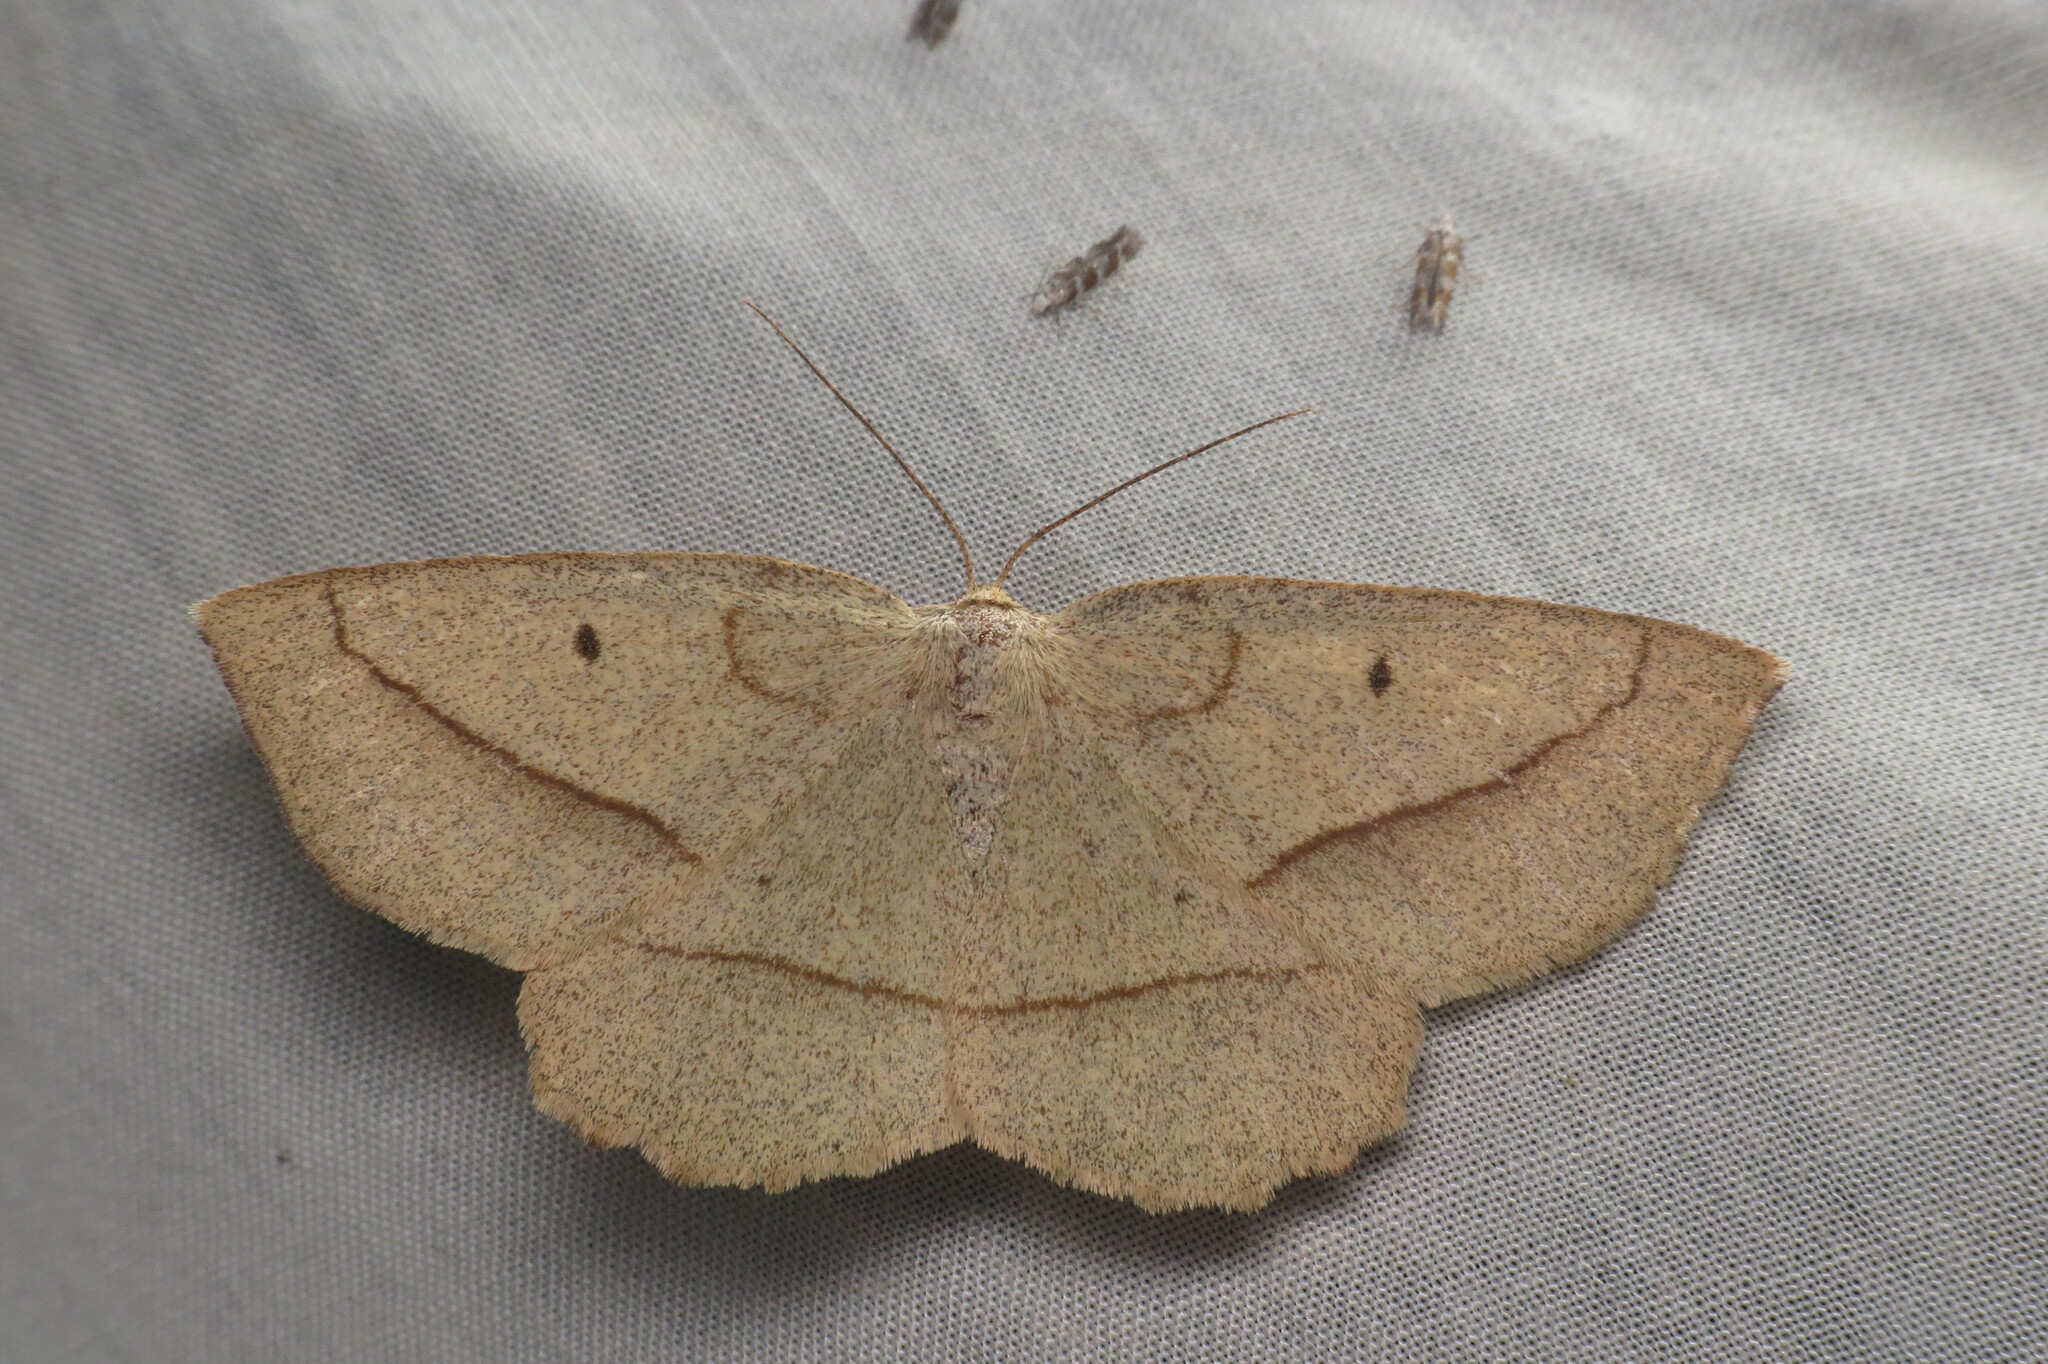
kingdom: Animalia
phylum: Arthropoda
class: Insecta
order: Lepidoptera
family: Geometridae
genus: Euchlaena
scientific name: Euchlaena irraria
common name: Least-marked euchlaena
